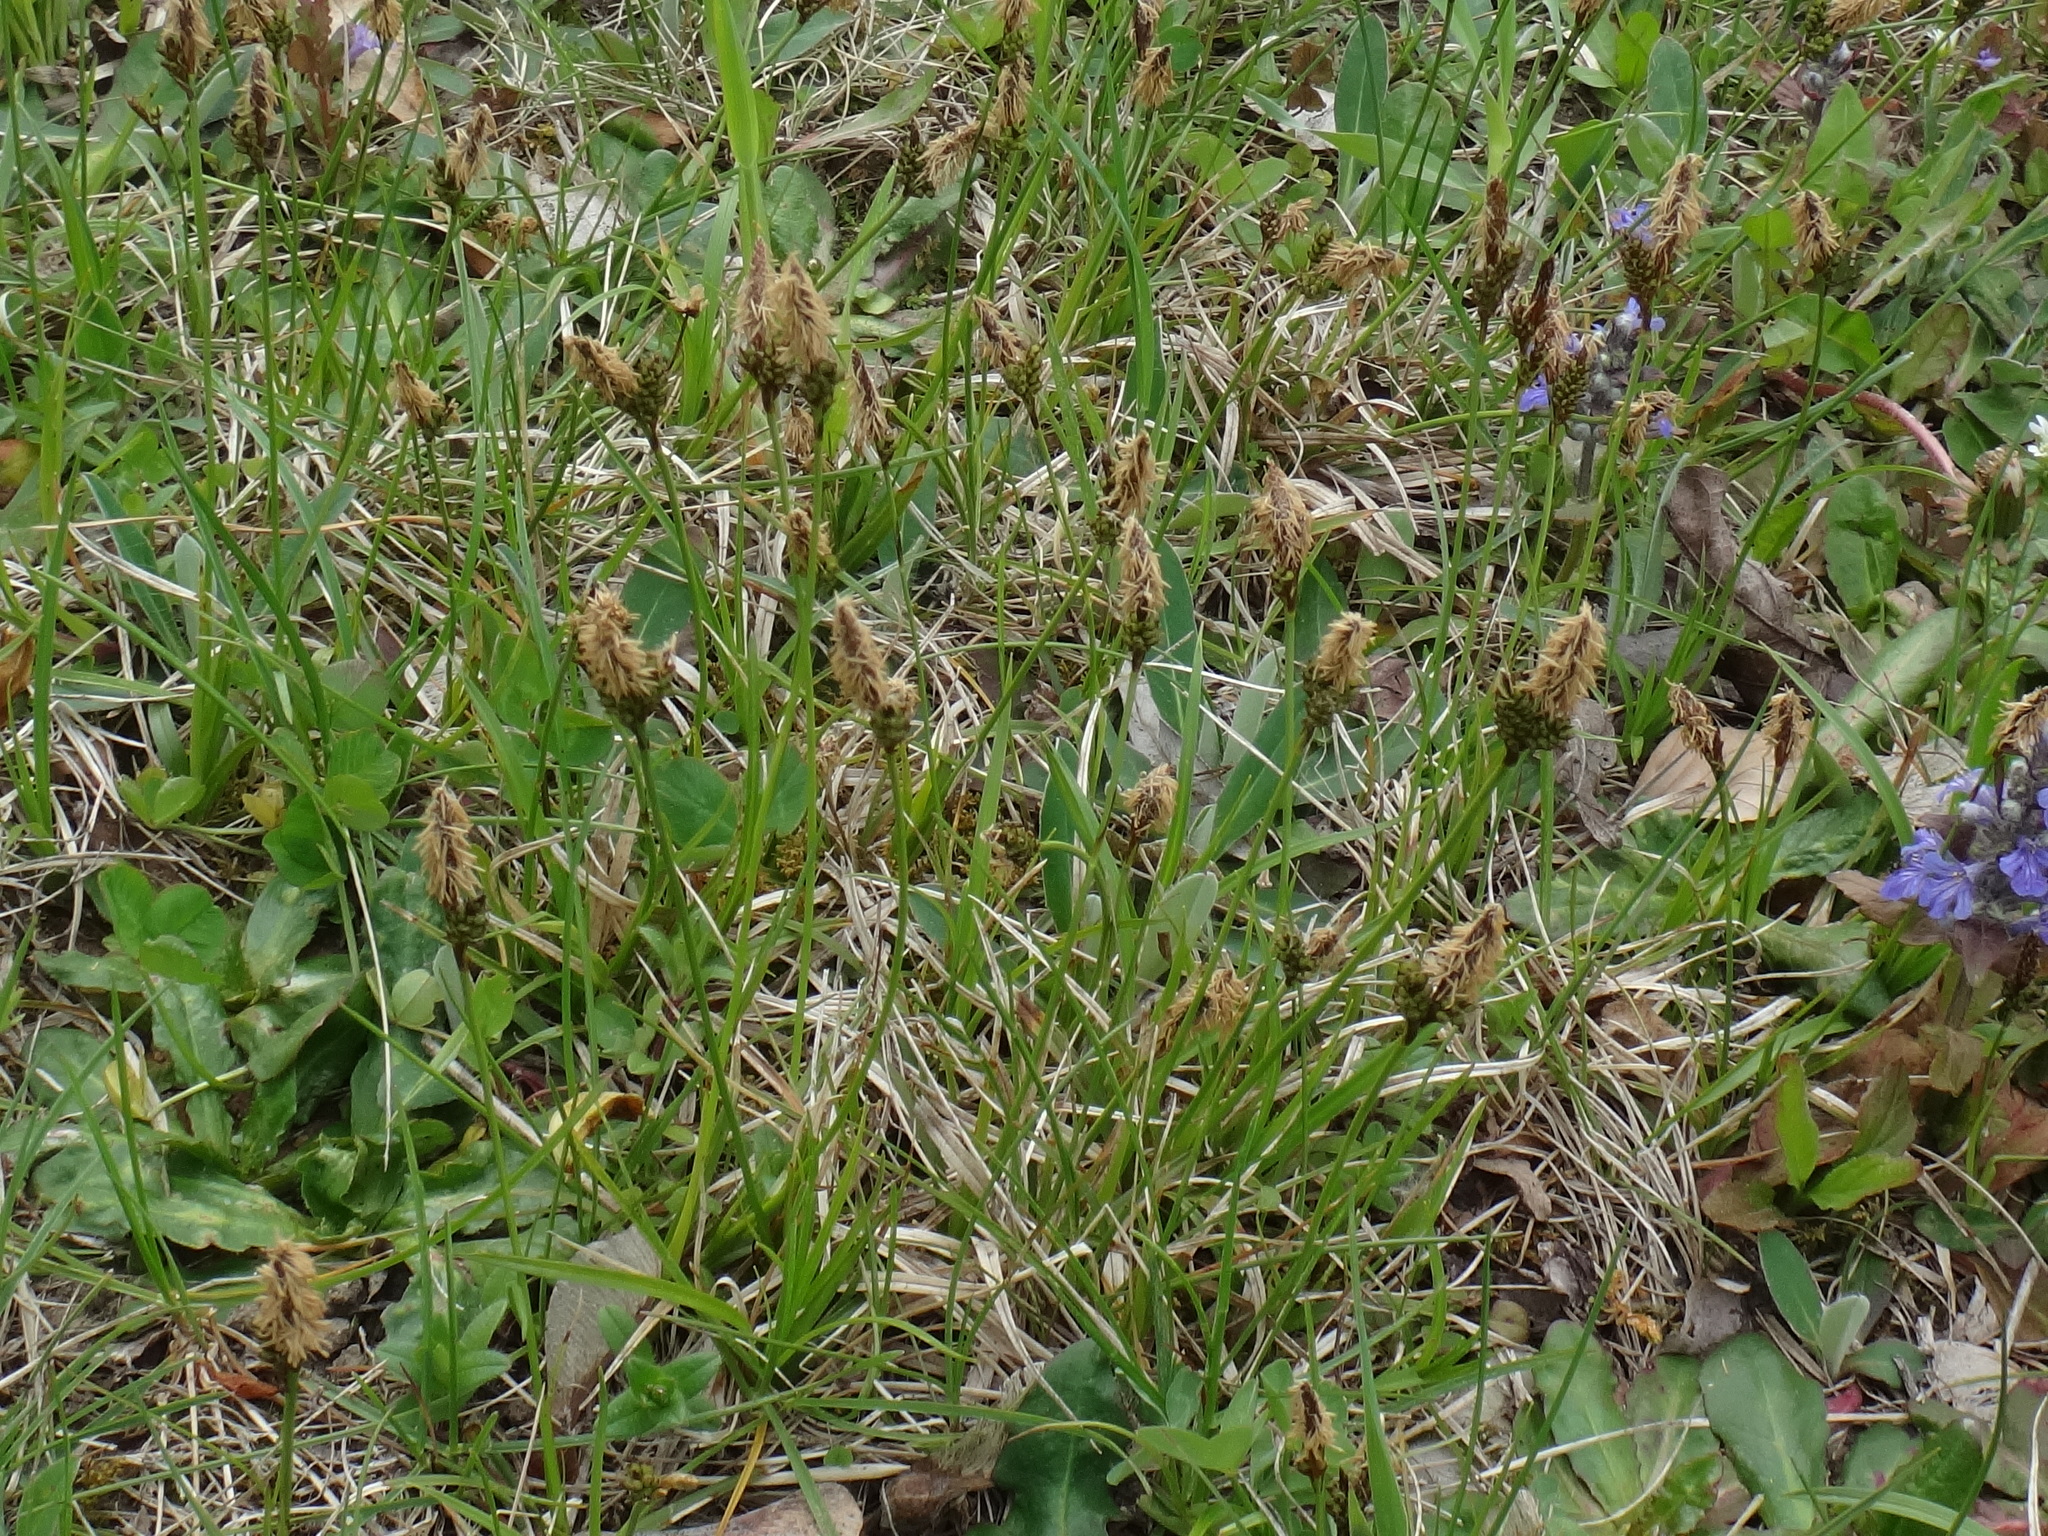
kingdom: Plantae
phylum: Tracheophyta
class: Liliopsida
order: Poales
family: Cyperaceae
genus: Carex
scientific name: Carex caryophyllea
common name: Spring sedge
